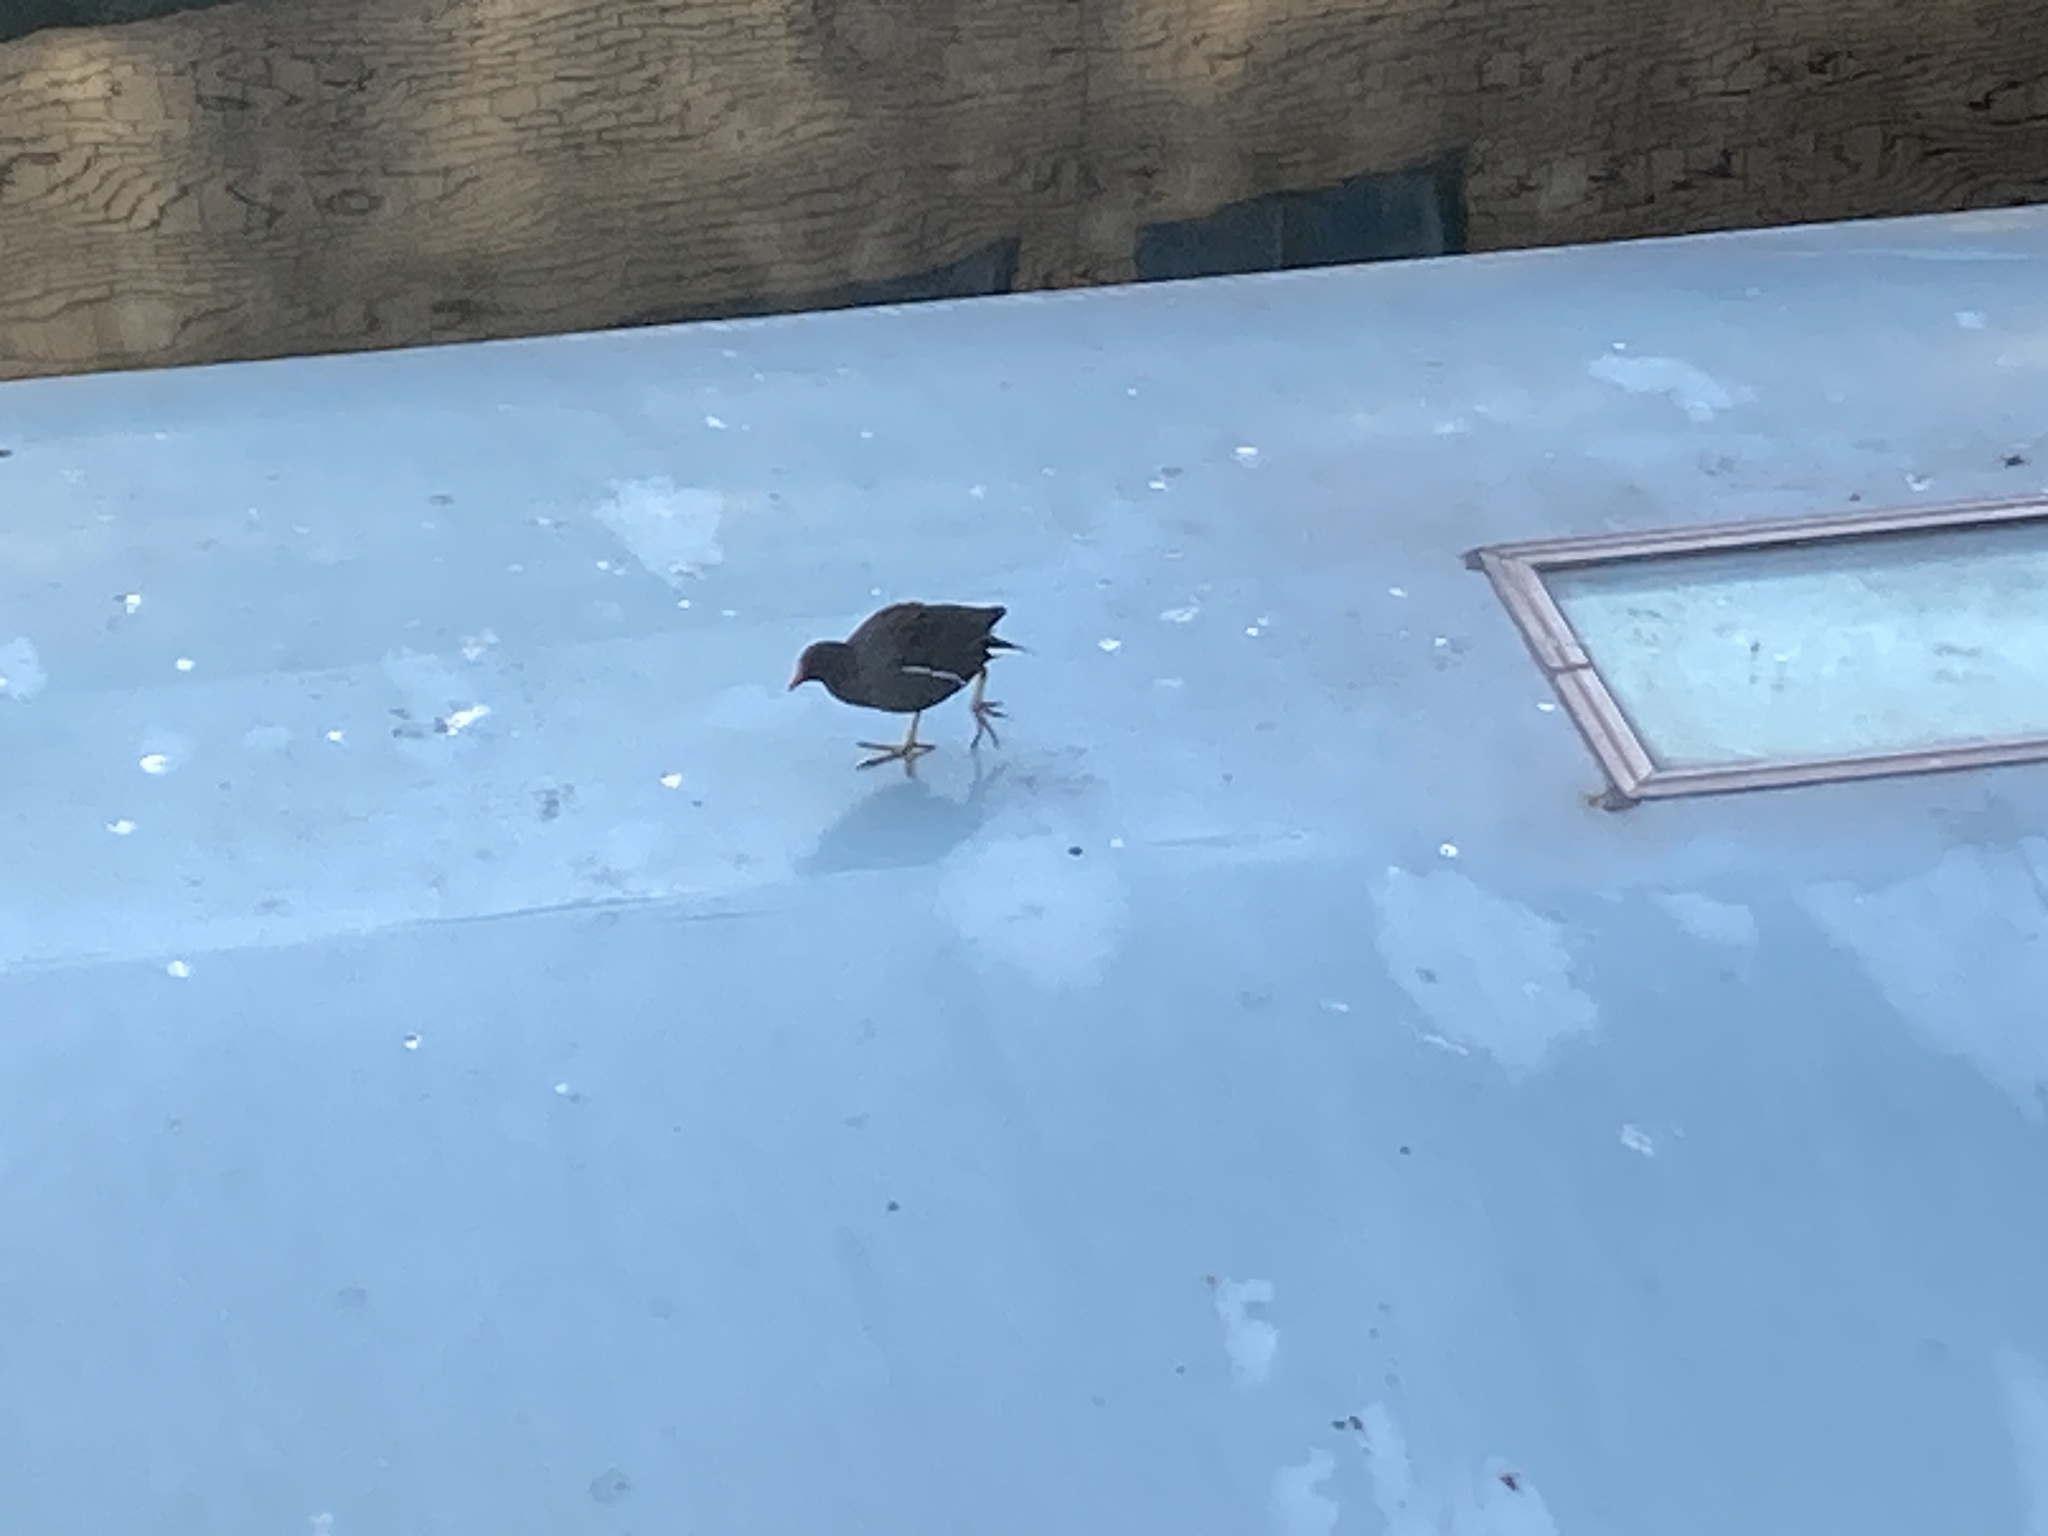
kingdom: Animalia
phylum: Chordata
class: Aves
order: Gruiformes
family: Rallidae
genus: Gallinula
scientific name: Gallinula chloropus
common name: Common moorhen
